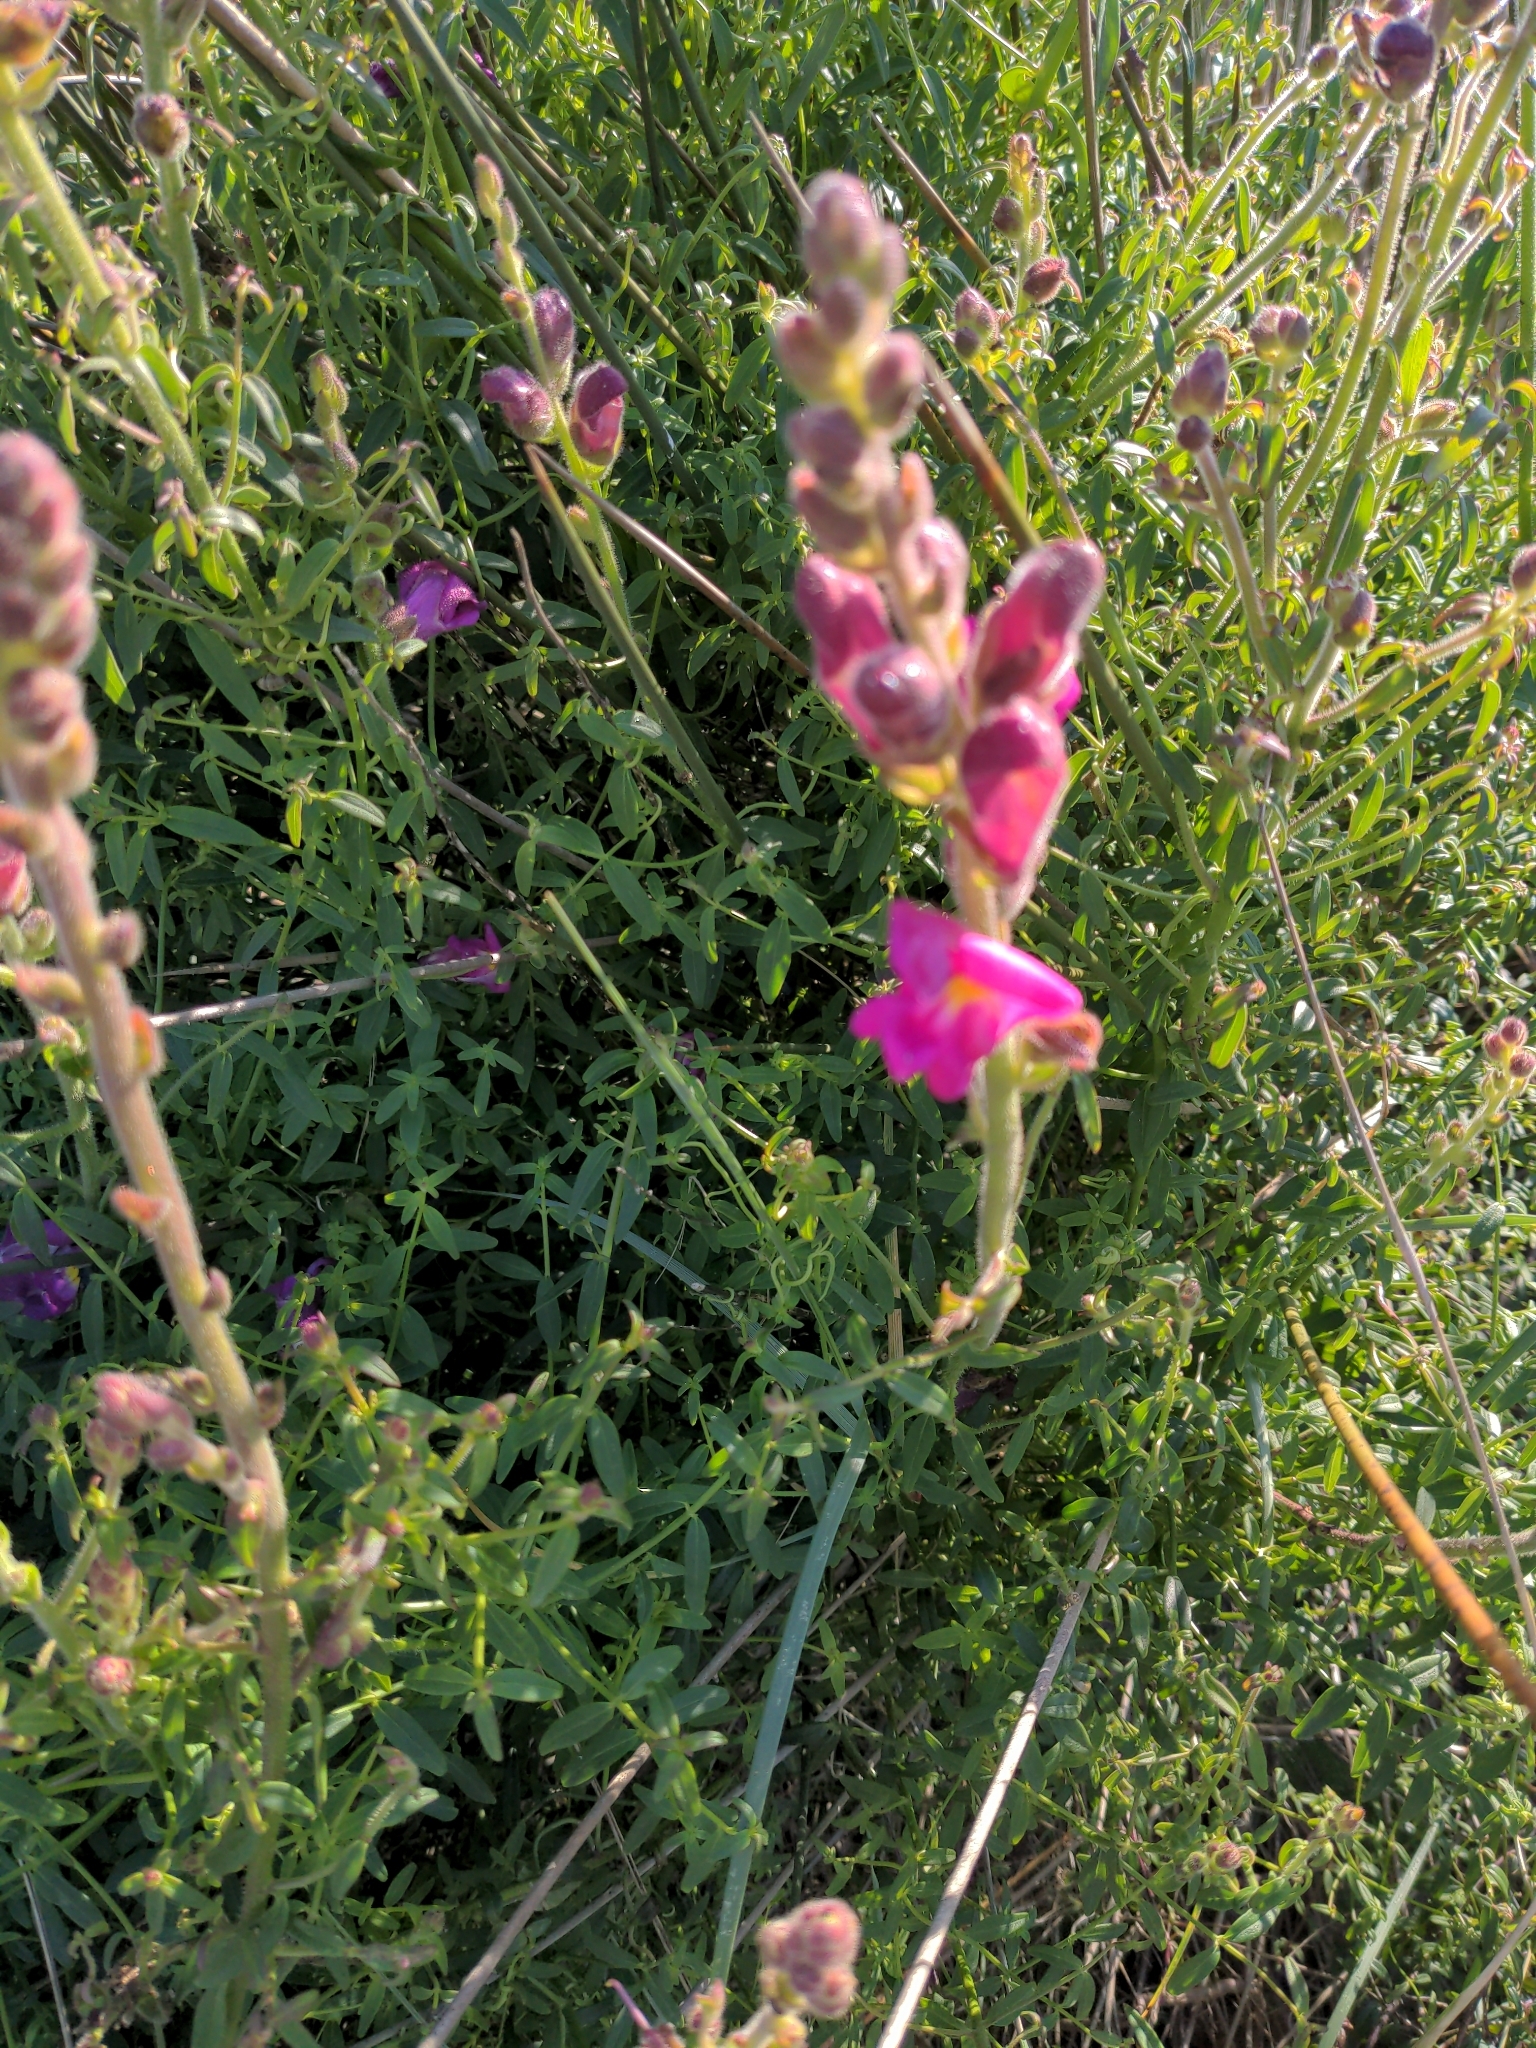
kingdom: Plantae
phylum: Tracheophyta
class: Magnoliopsida
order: Lamiales
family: Plantaginaceae
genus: Antirrhinum
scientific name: Antirrhinum cirrhigerum
